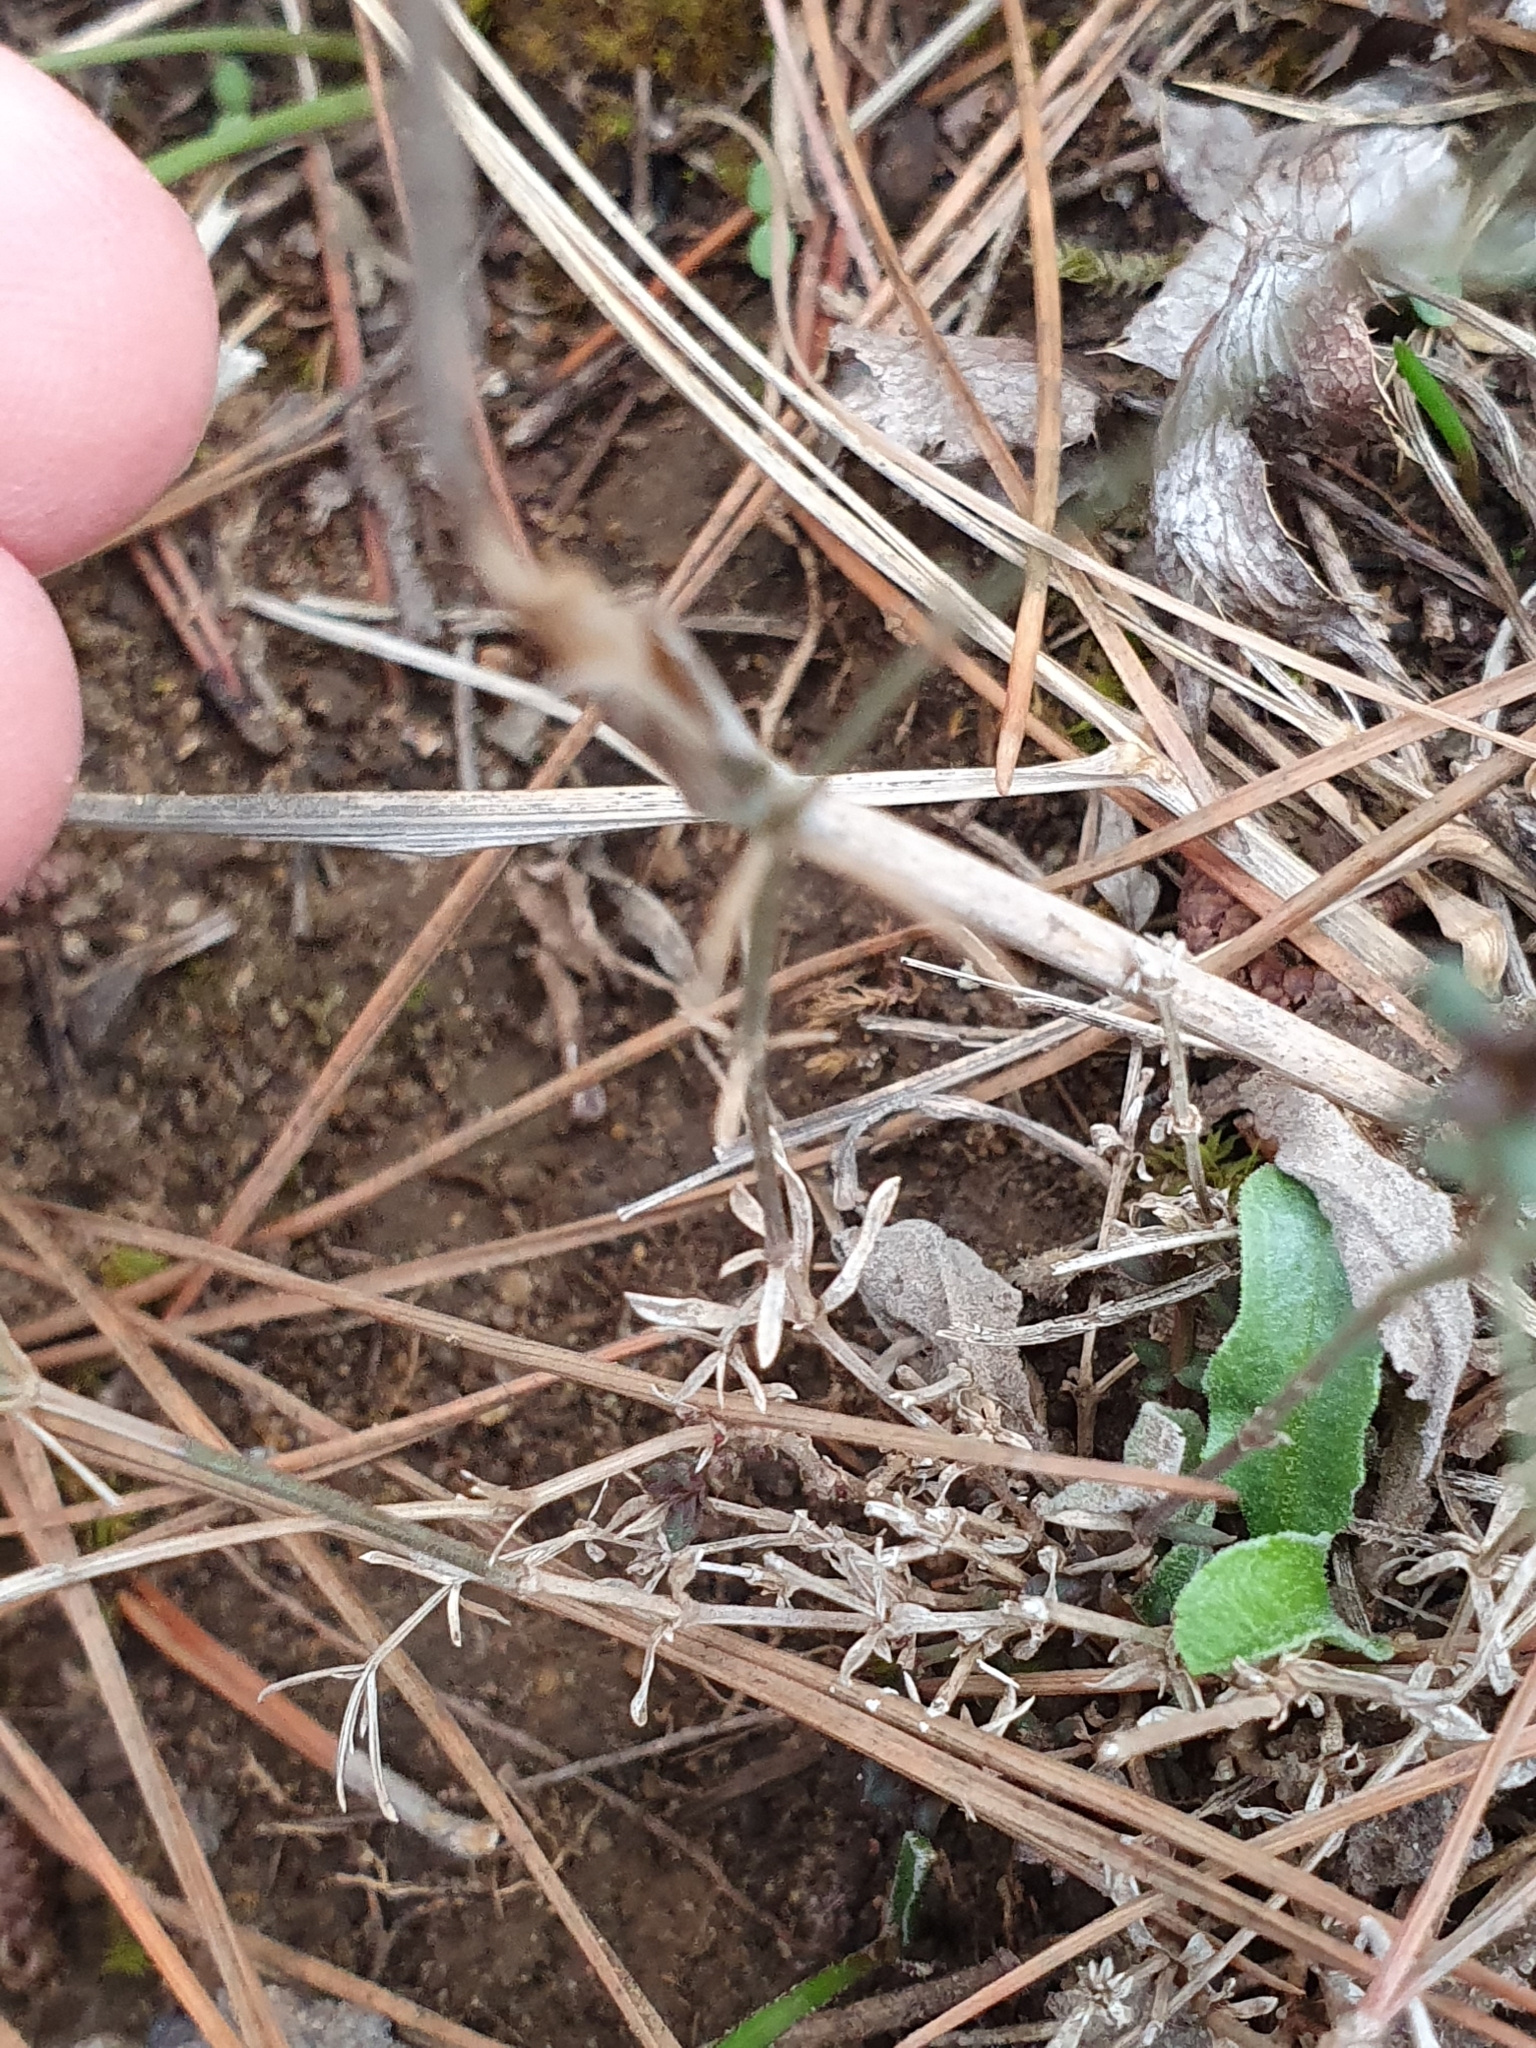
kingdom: Plantae
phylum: Tracheophyta
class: Magnoliopsida
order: Gentianales
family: Rubiaceae
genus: Cynanchica
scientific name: Cynanchica aristata
